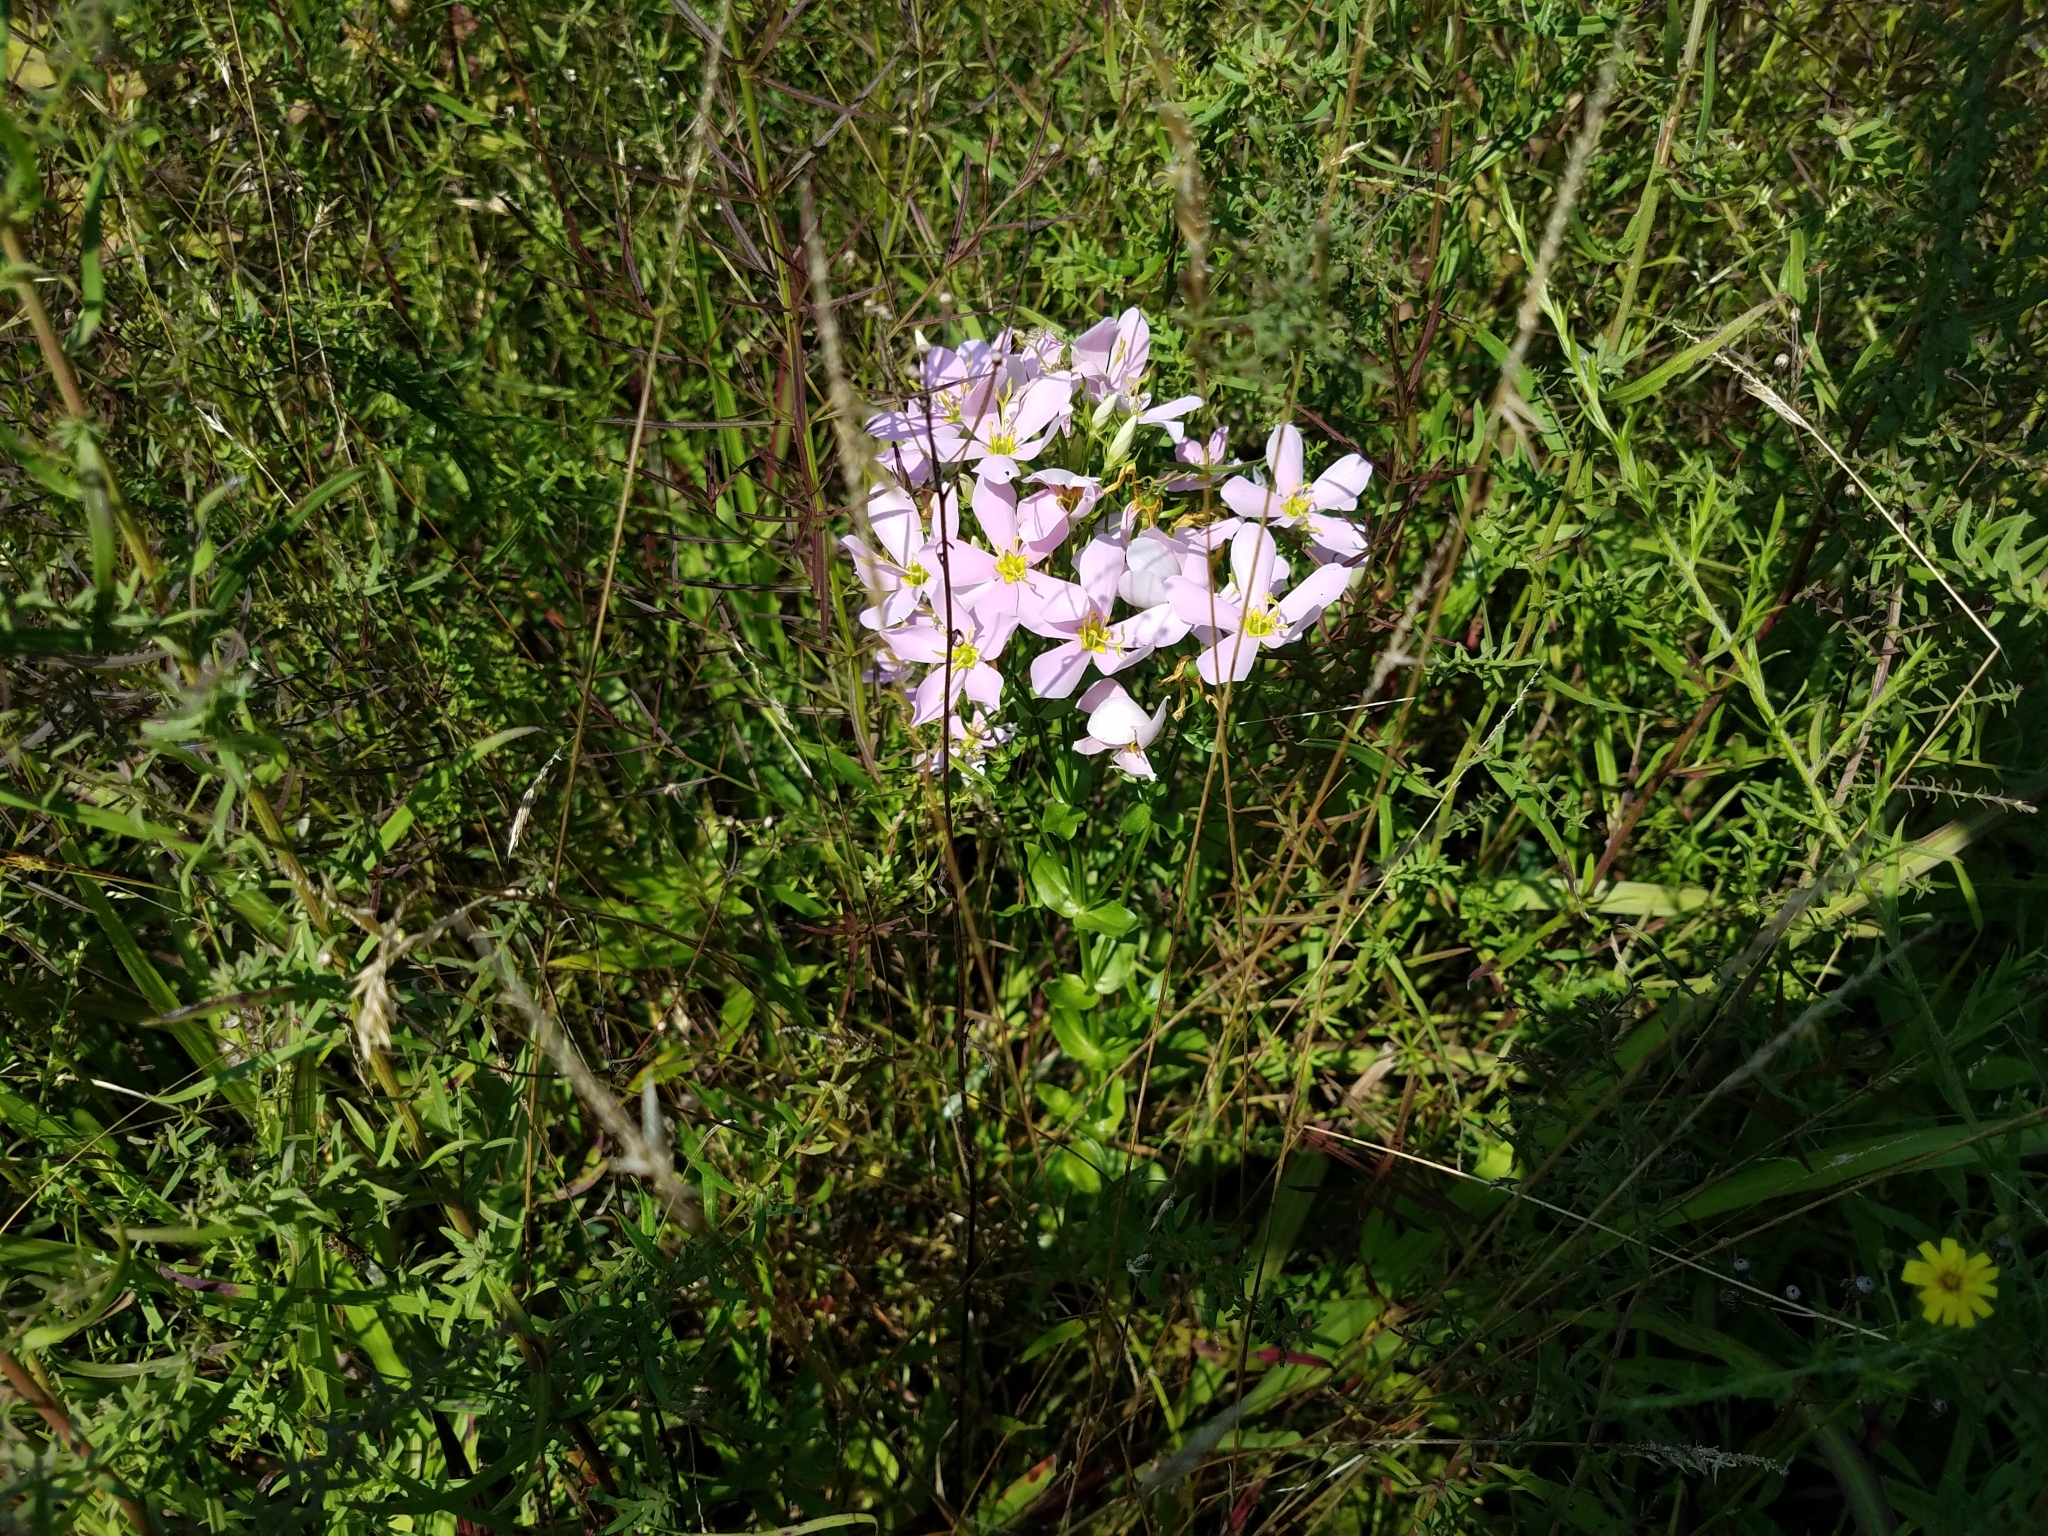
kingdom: Plantae
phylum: Tracheophyta
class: Magnoliopsida
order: Gentianales
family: Gentianaceae
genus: Sabatia
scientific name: Sabatia angularis
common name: Rose-pink
